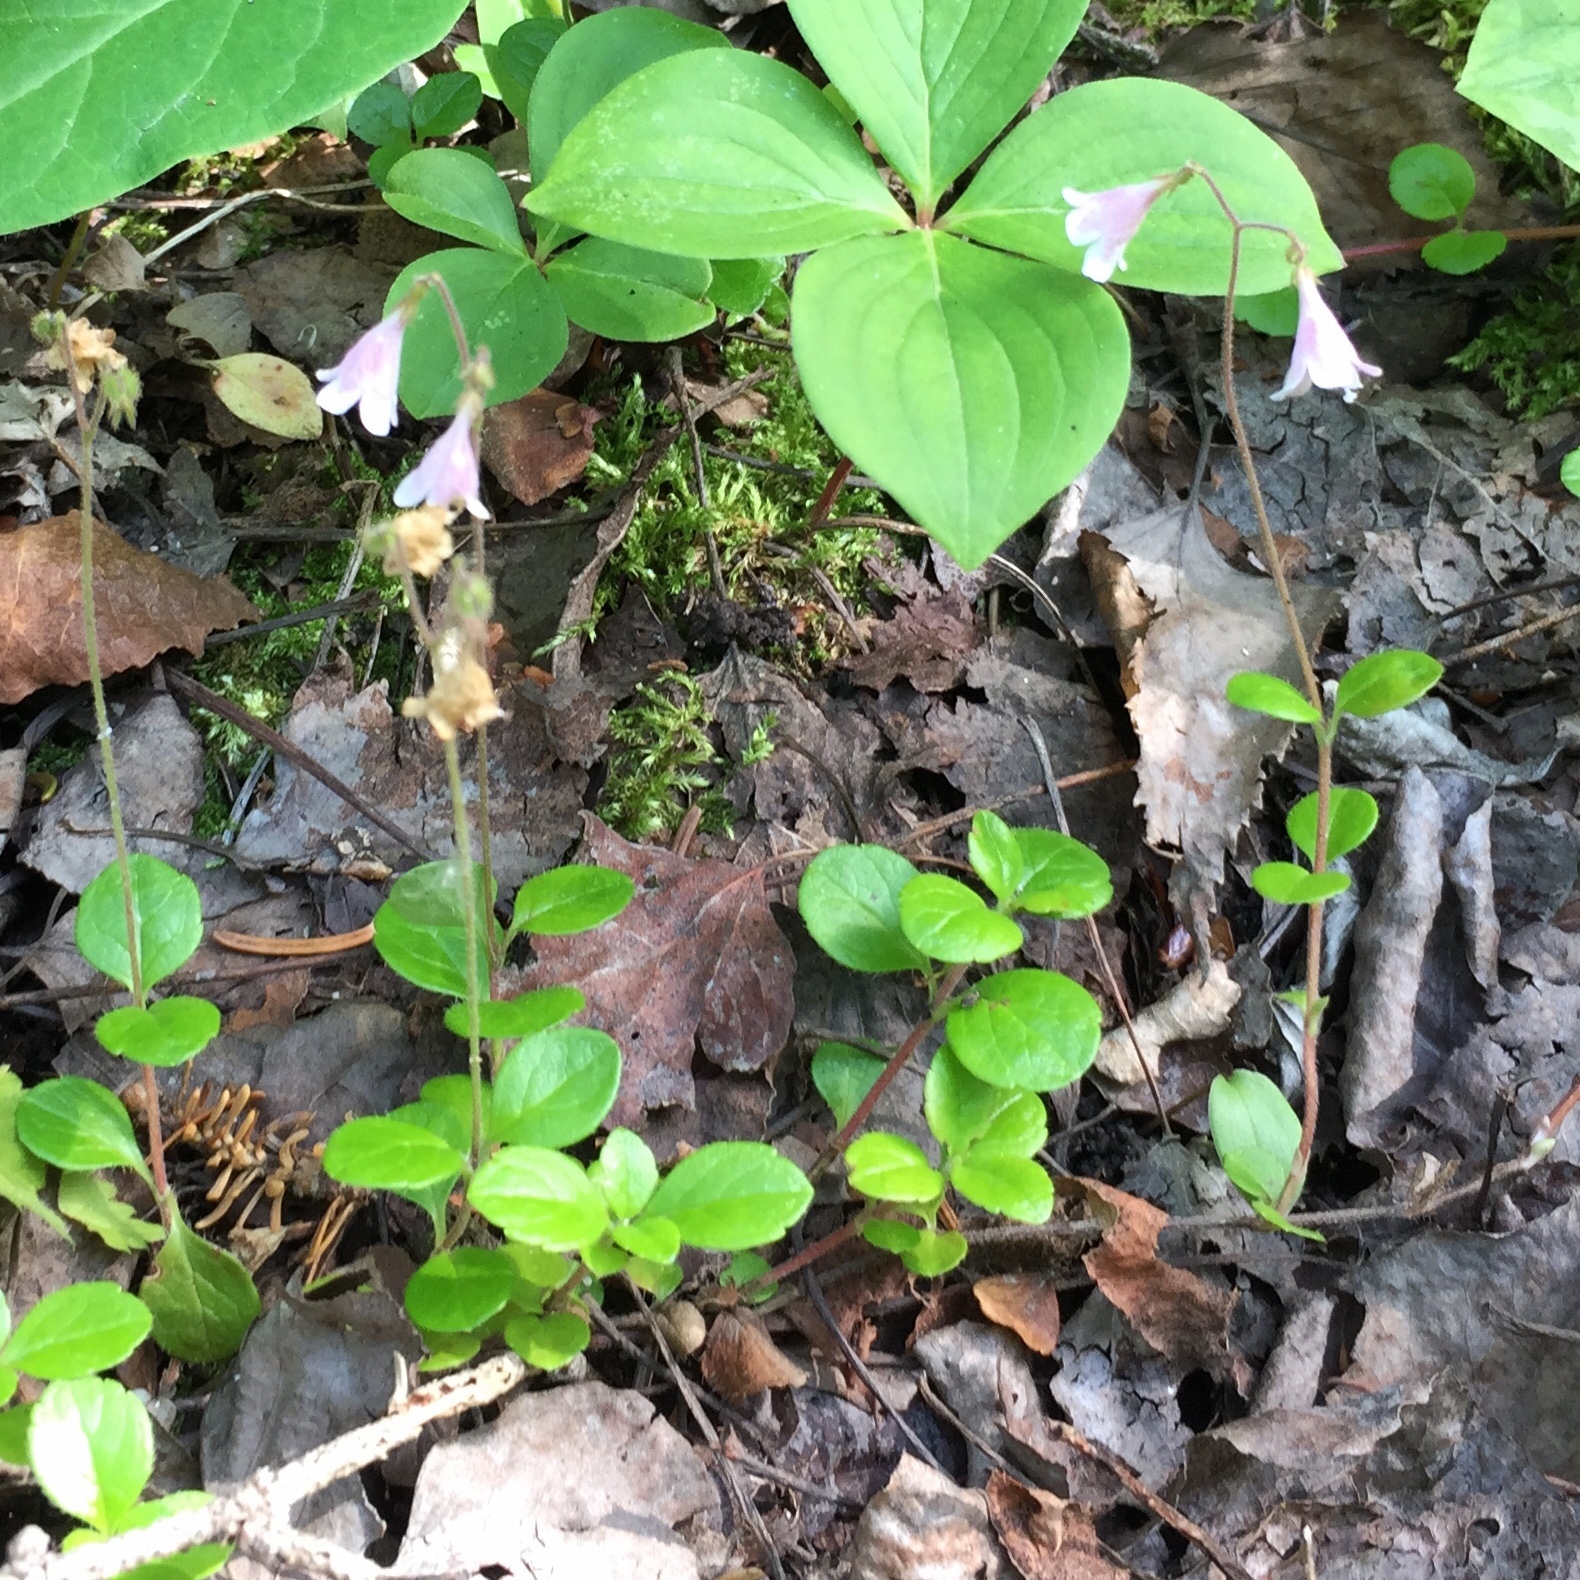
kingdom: Plantae
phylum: Tracheophyta
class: Magnoliopsida
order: Dipsacales
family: Caprifoliaceae
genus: Linnaea
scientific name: Linnaea borealis
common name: Twinflower
